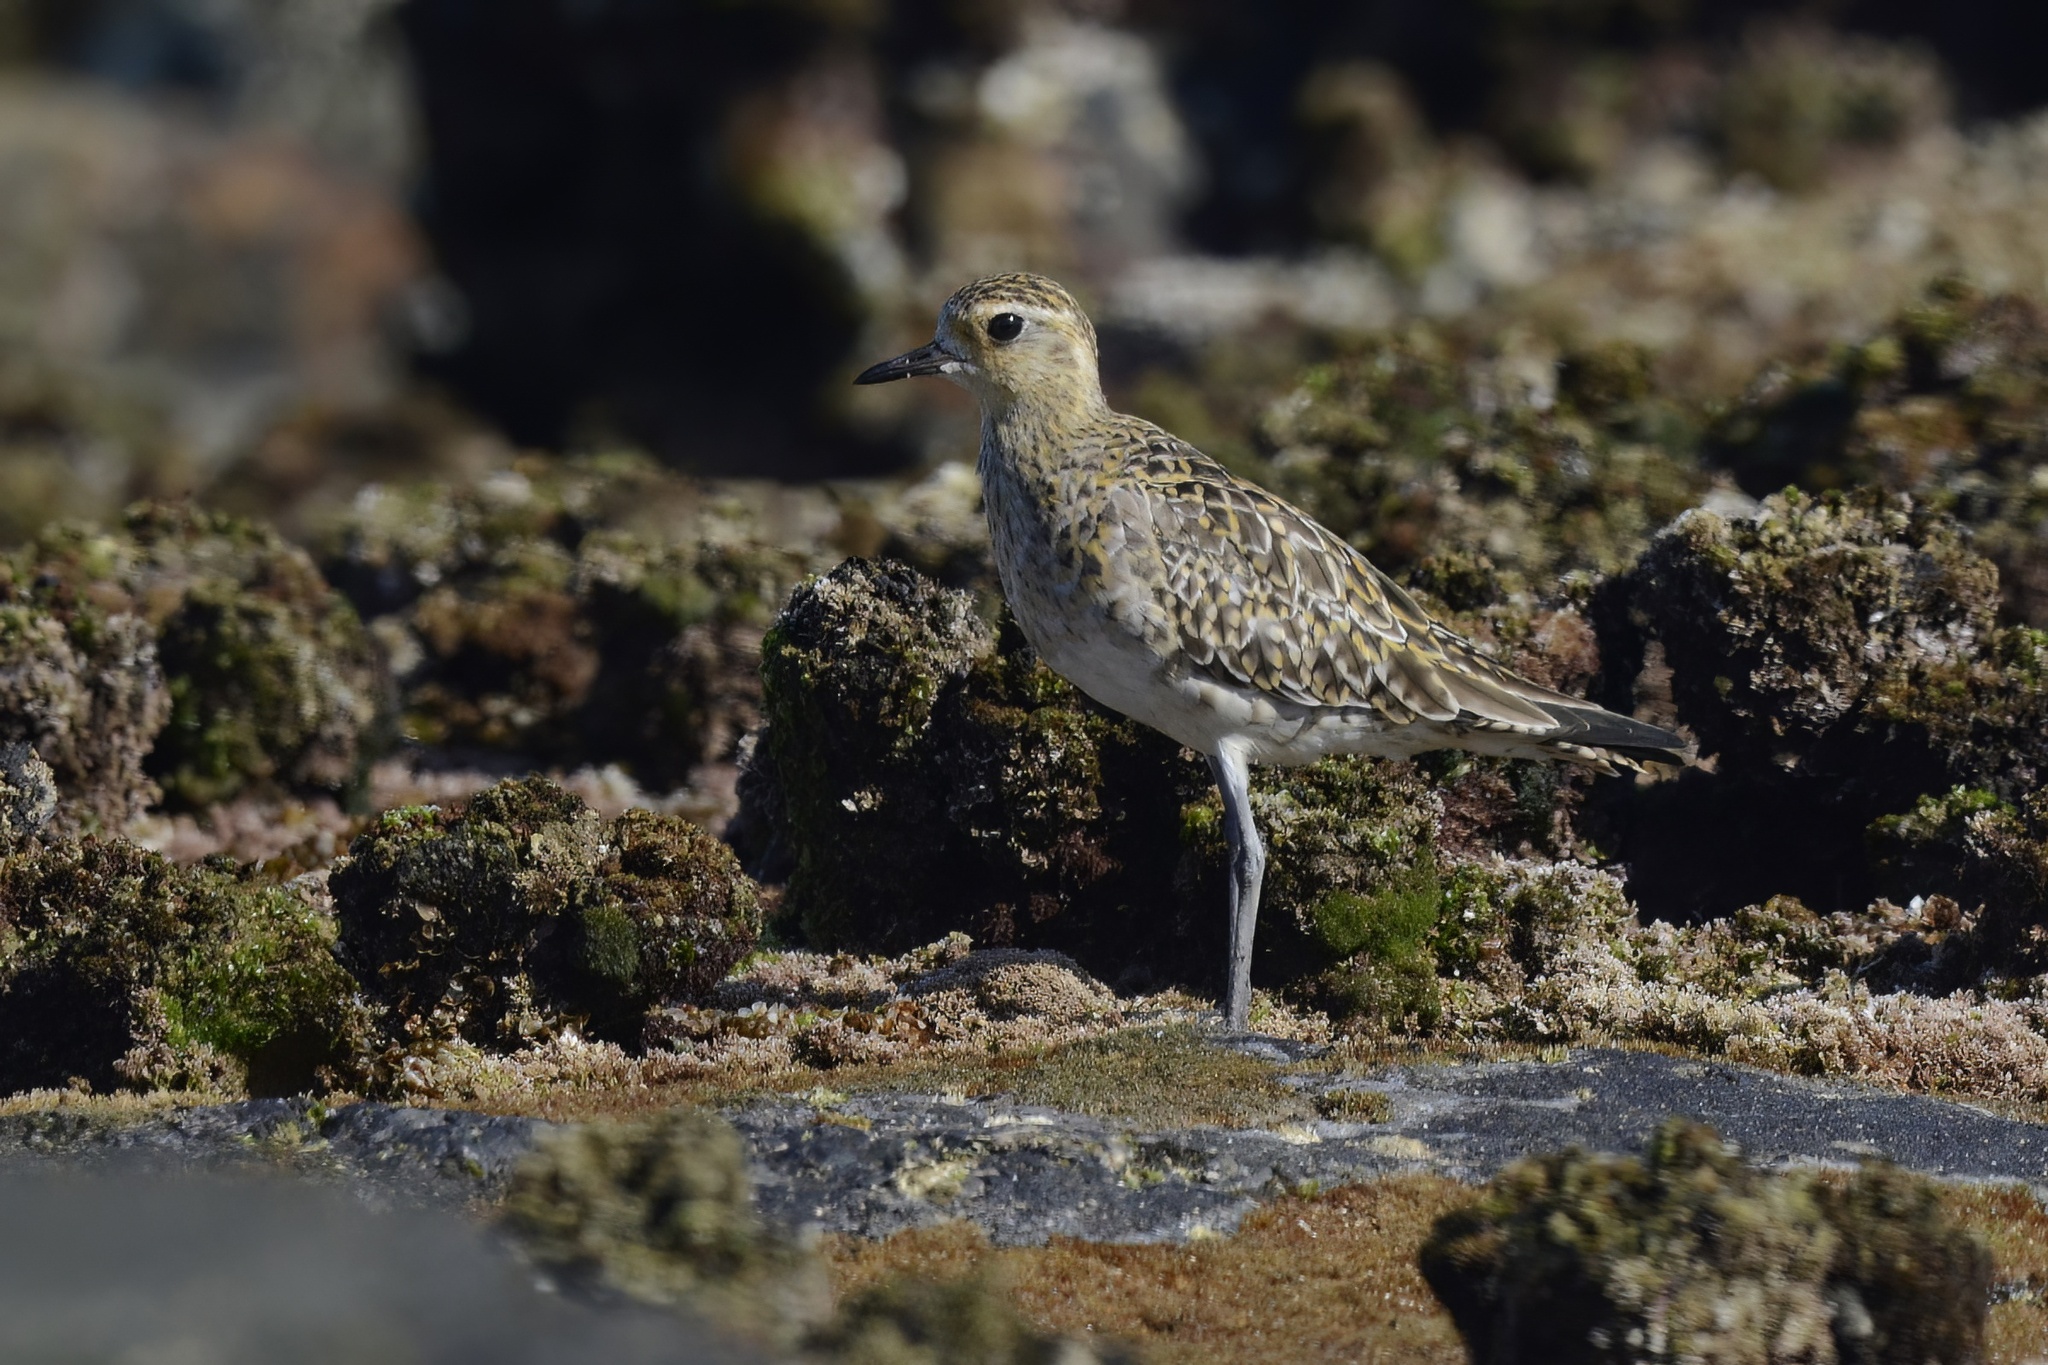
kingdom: Animalia
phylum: Chordata
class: Aves
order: Charadriiformes
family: Charadriidae
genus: Pluvialis
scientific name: Pluvialis fulva
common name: Pacific golden plover
